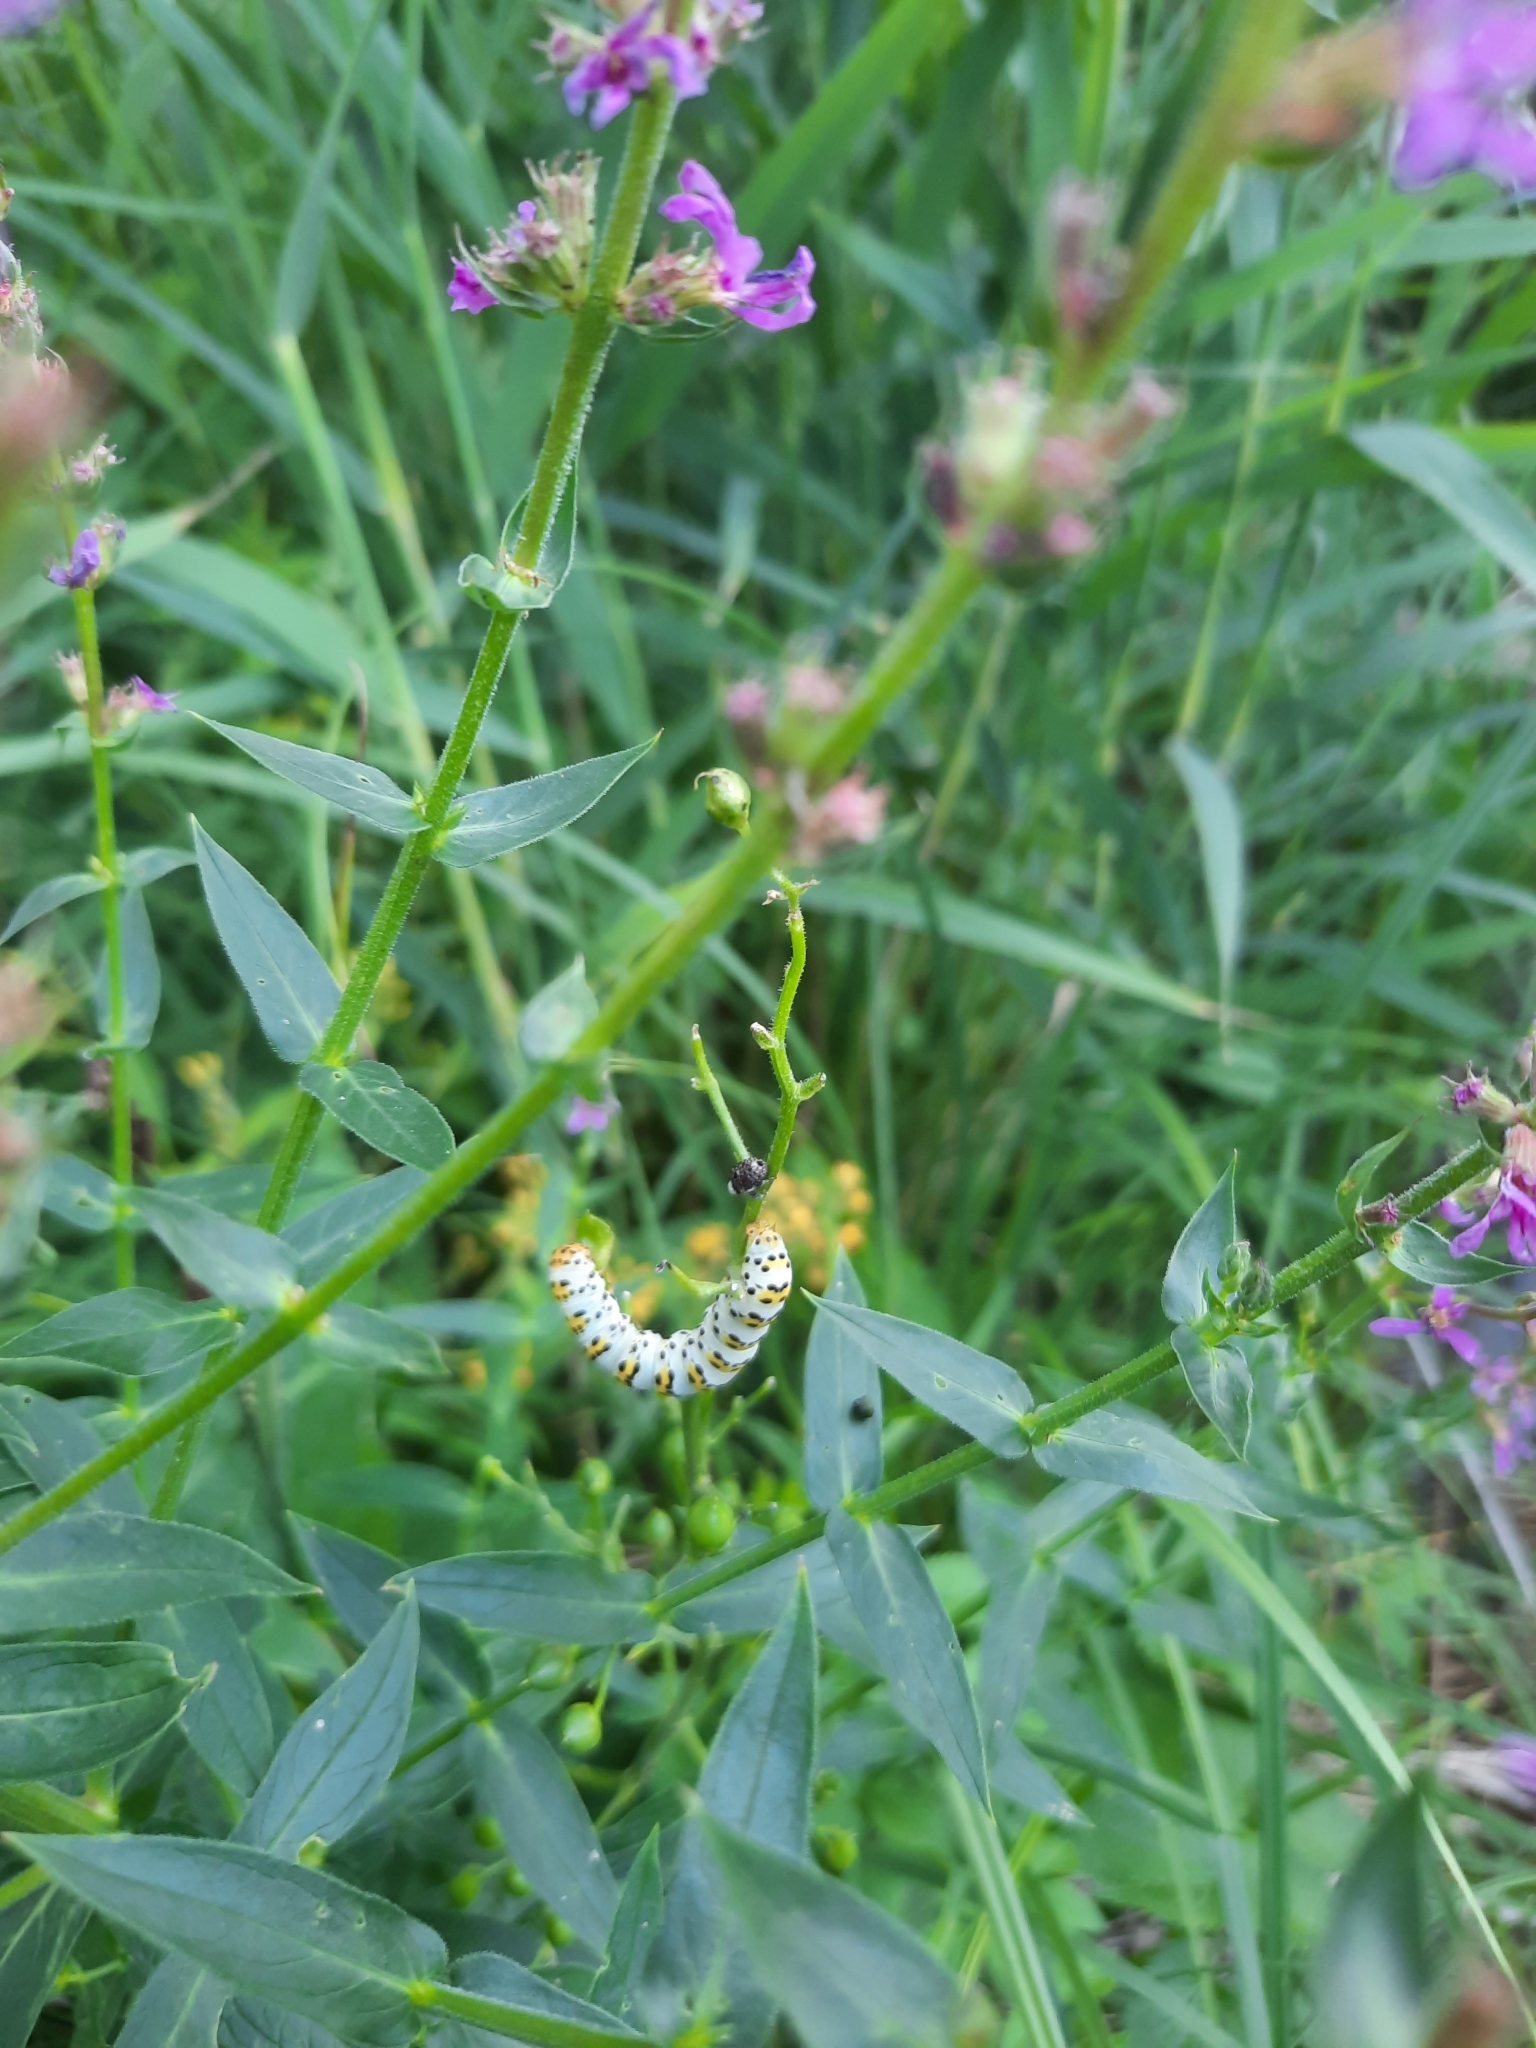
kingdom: Animalia
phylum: Arthropoda
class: Insecta
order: Lepidoptera
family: Noctuidae
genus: Shargacucullia
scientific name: Shargacucullia scrophulariae
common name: Water betony
